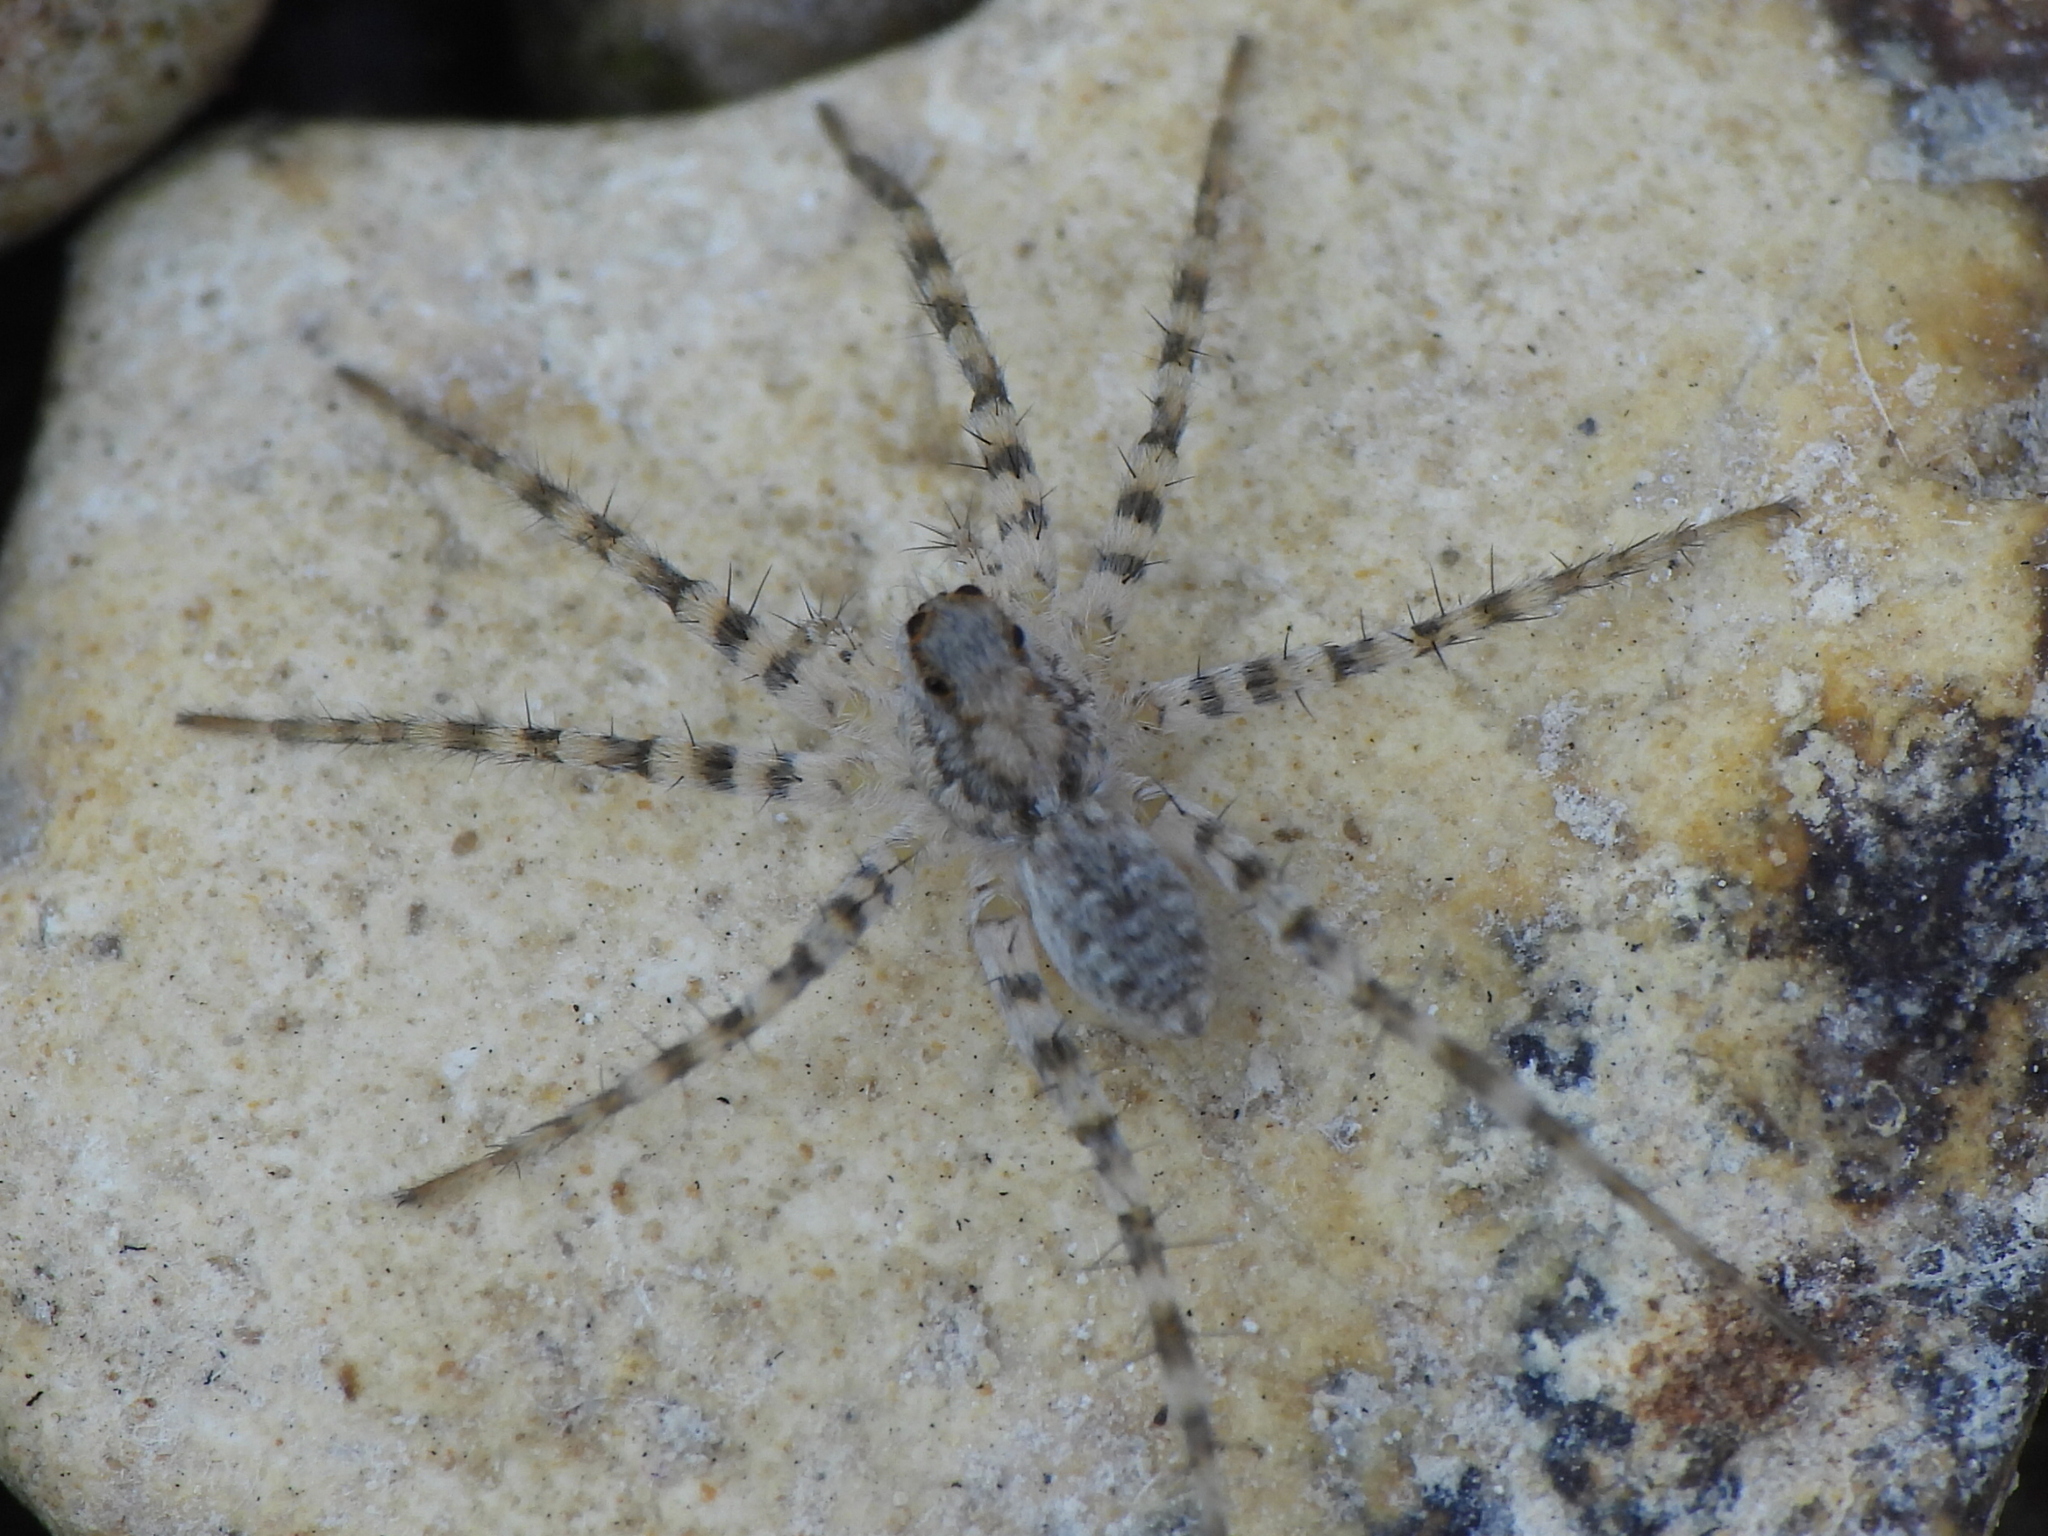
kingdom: Animalia
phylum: Arthropoda
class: Arachnida
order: Araneae
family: Lycosidae
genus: Pardosa
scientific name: Pardosa mercurialis
